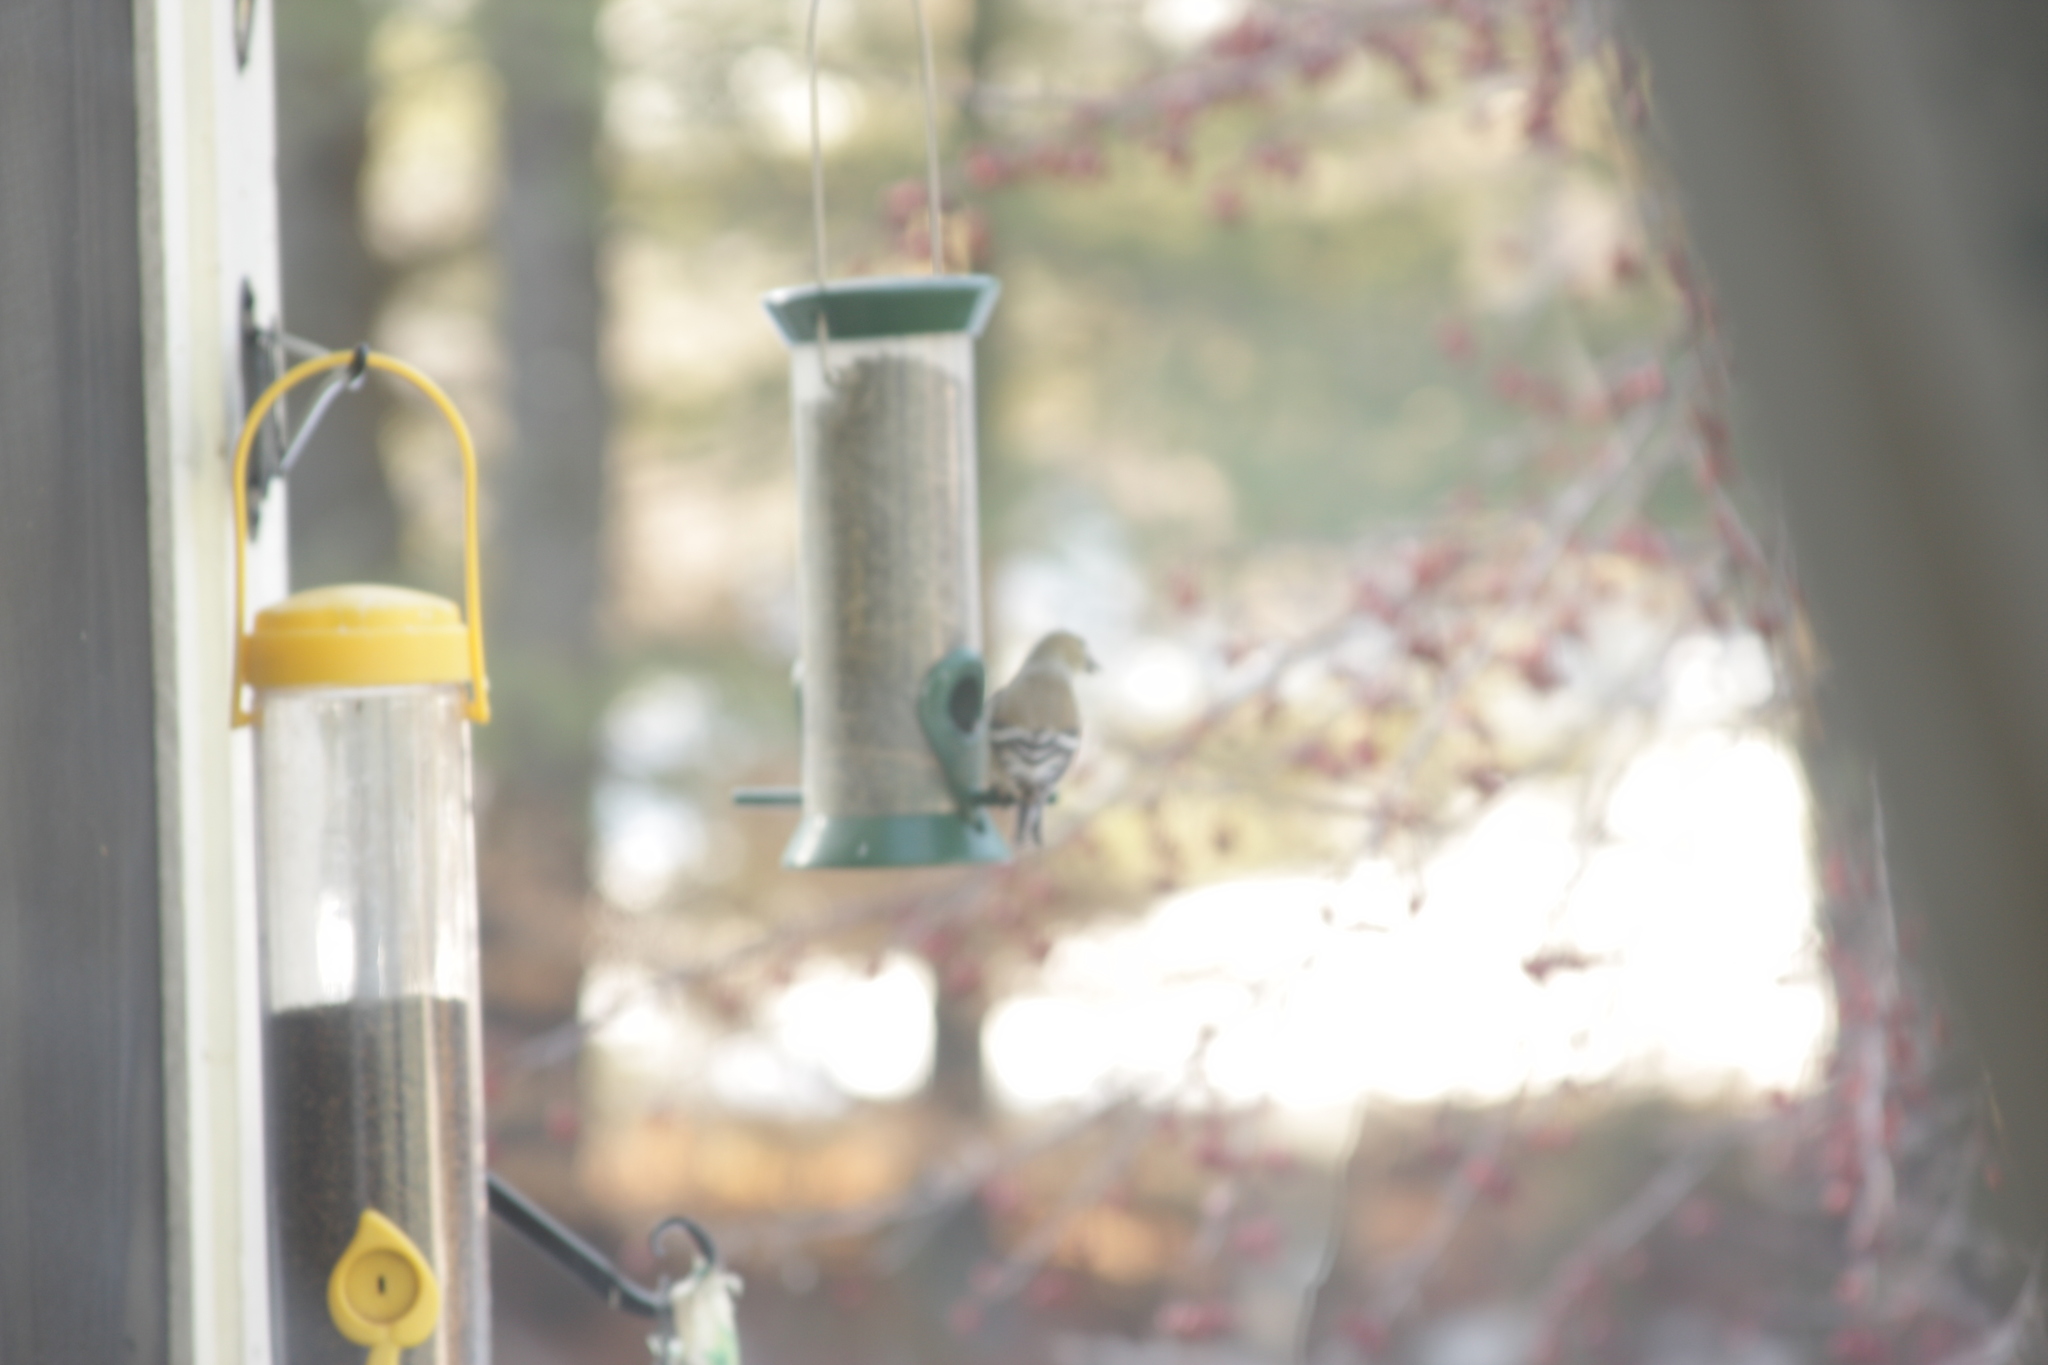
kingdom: Animalia
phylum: Chordata
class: Aves
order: Passeriformes
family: Fringillidae
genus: Spinus
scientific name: Spinus tristis
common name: American goldfinch
